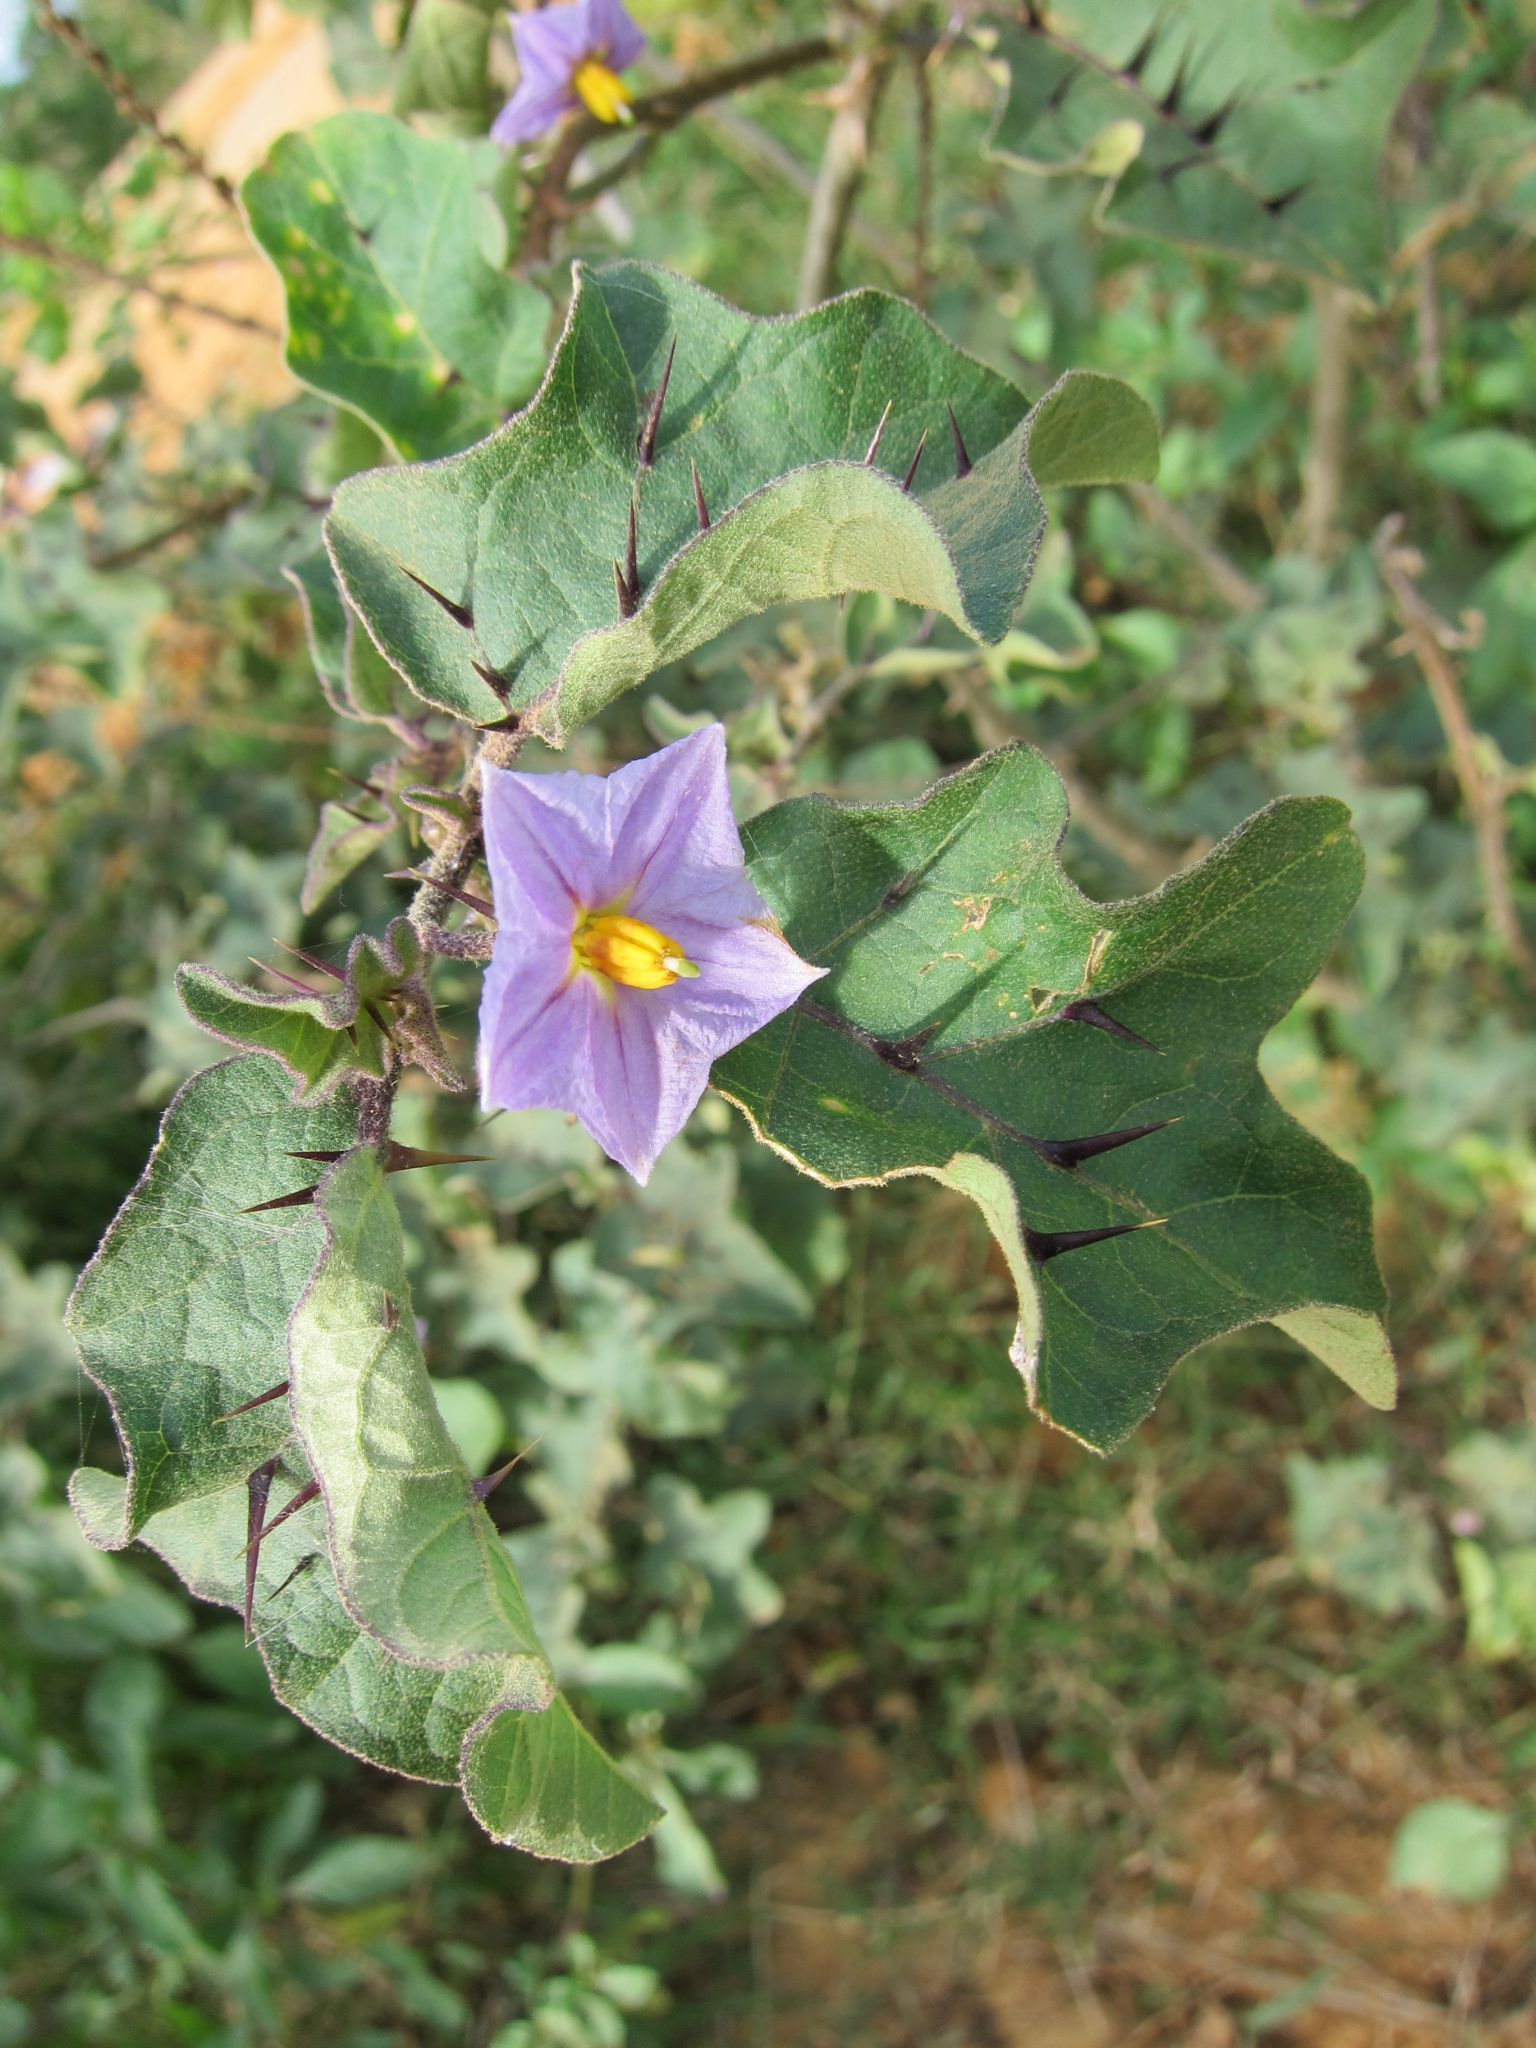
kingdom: Plantae
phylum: Tracheophyta
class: Magnoliopsida
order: Solanales
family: Solanaceae
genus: Solanum
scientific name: Solanum insanum
